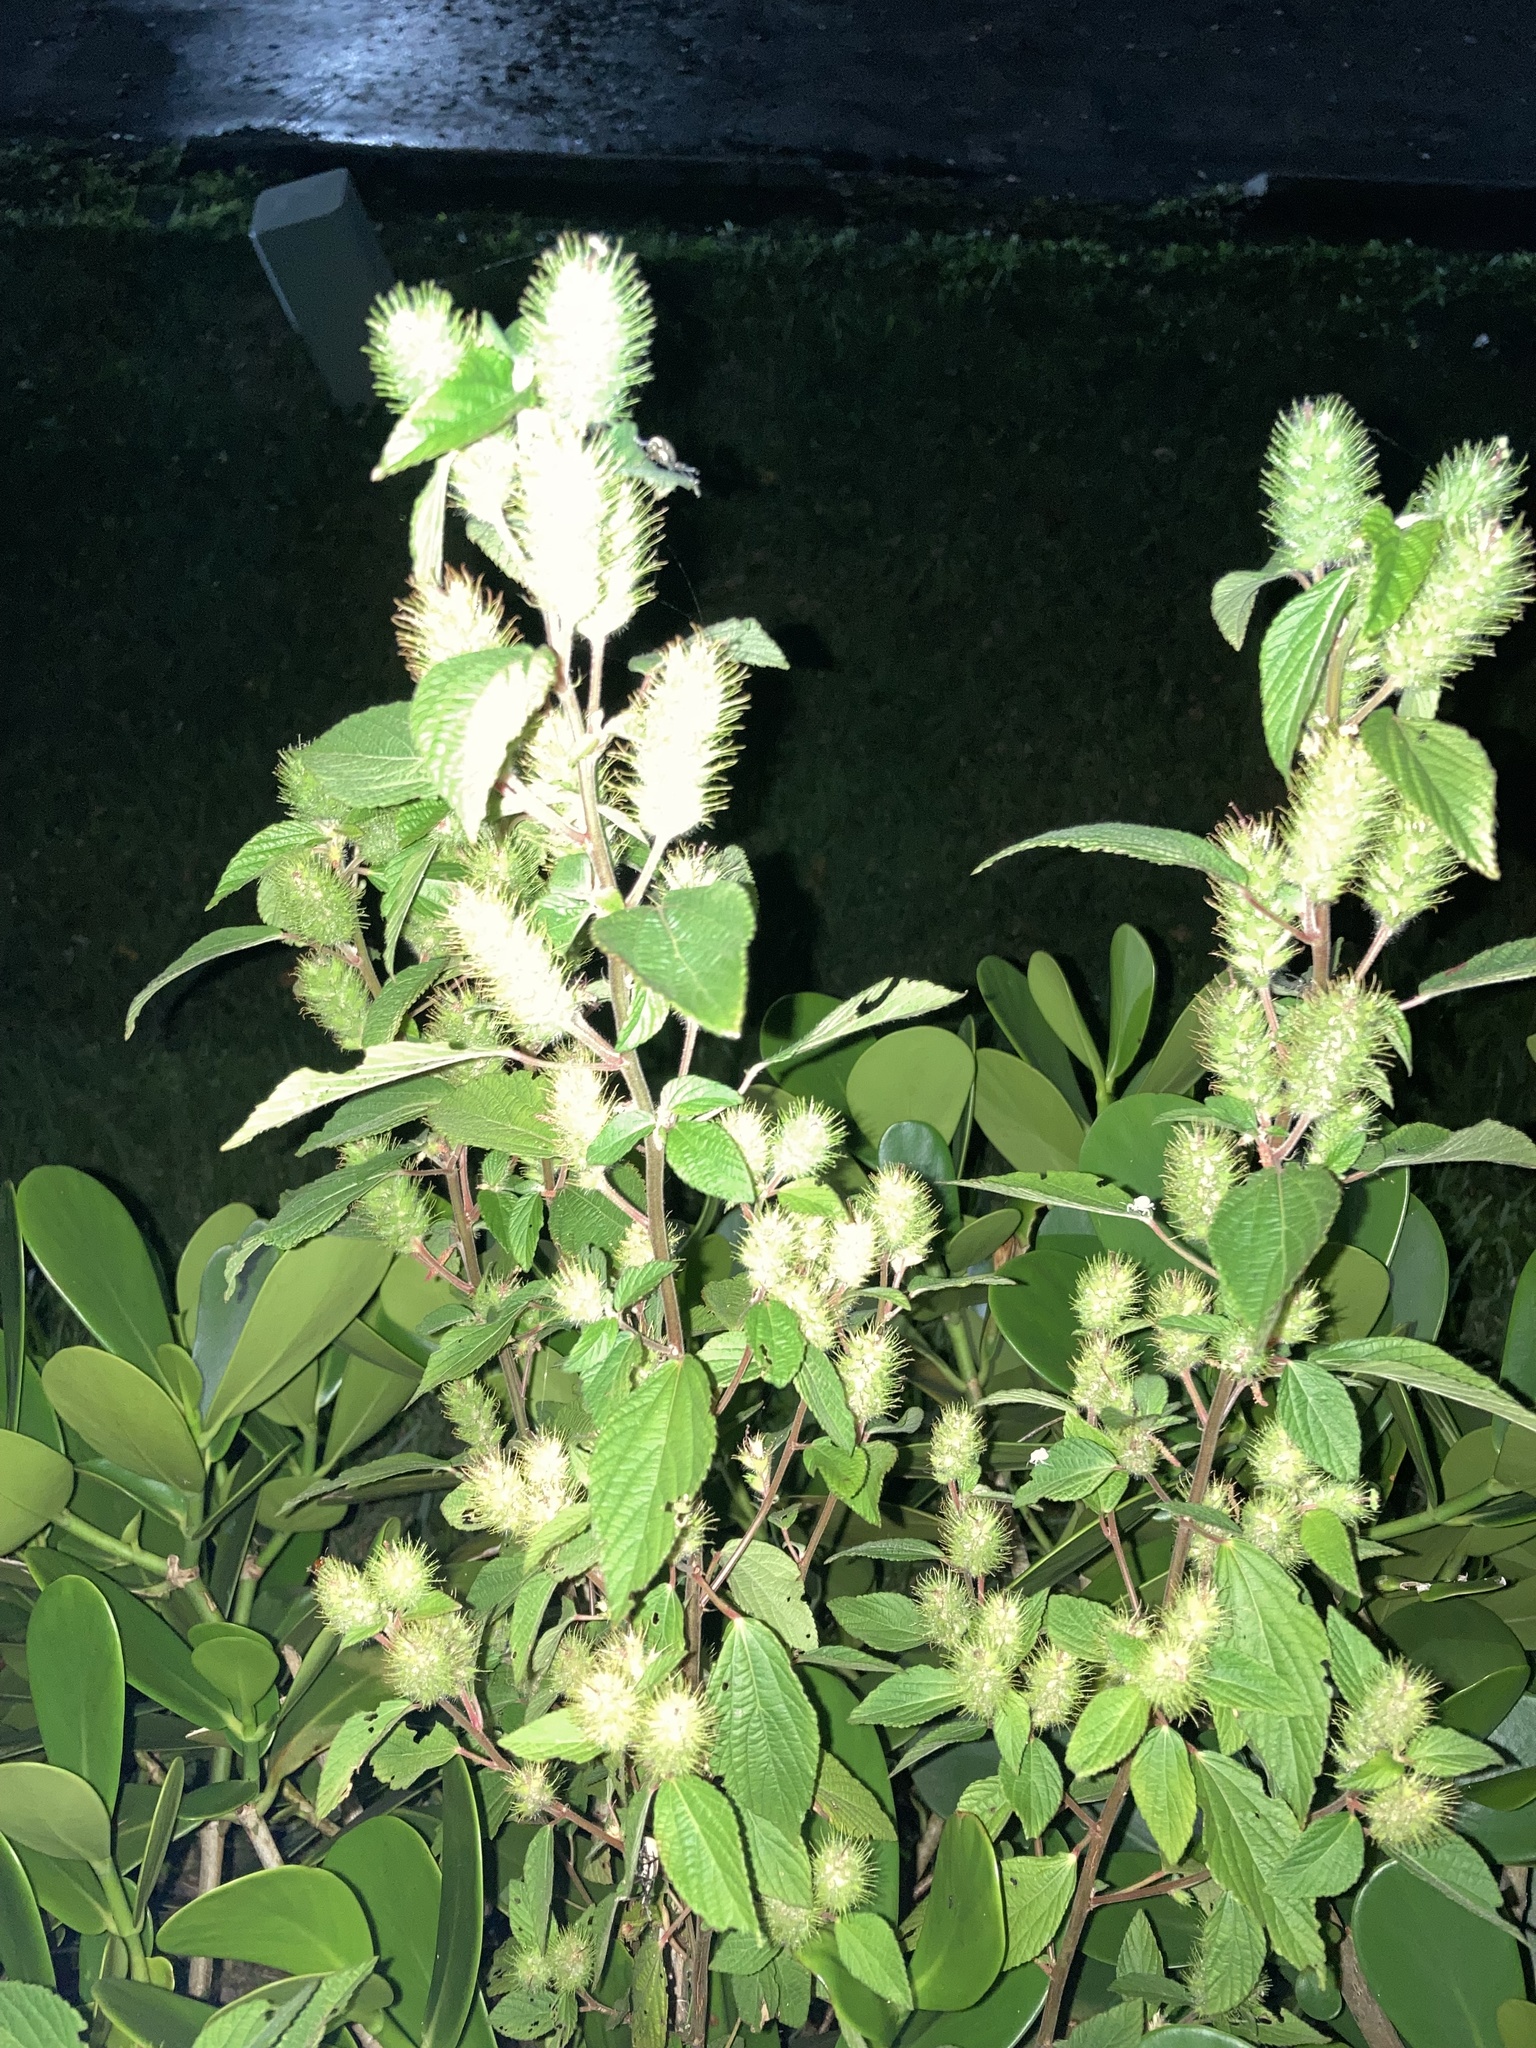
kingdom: Plantae
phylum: Tracheophyta
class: Magnoliopsida
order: Malpighiales
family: Euphorbiaceae
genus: Acalypha
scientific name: Acalypha arvensis
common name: Field copperleaf
